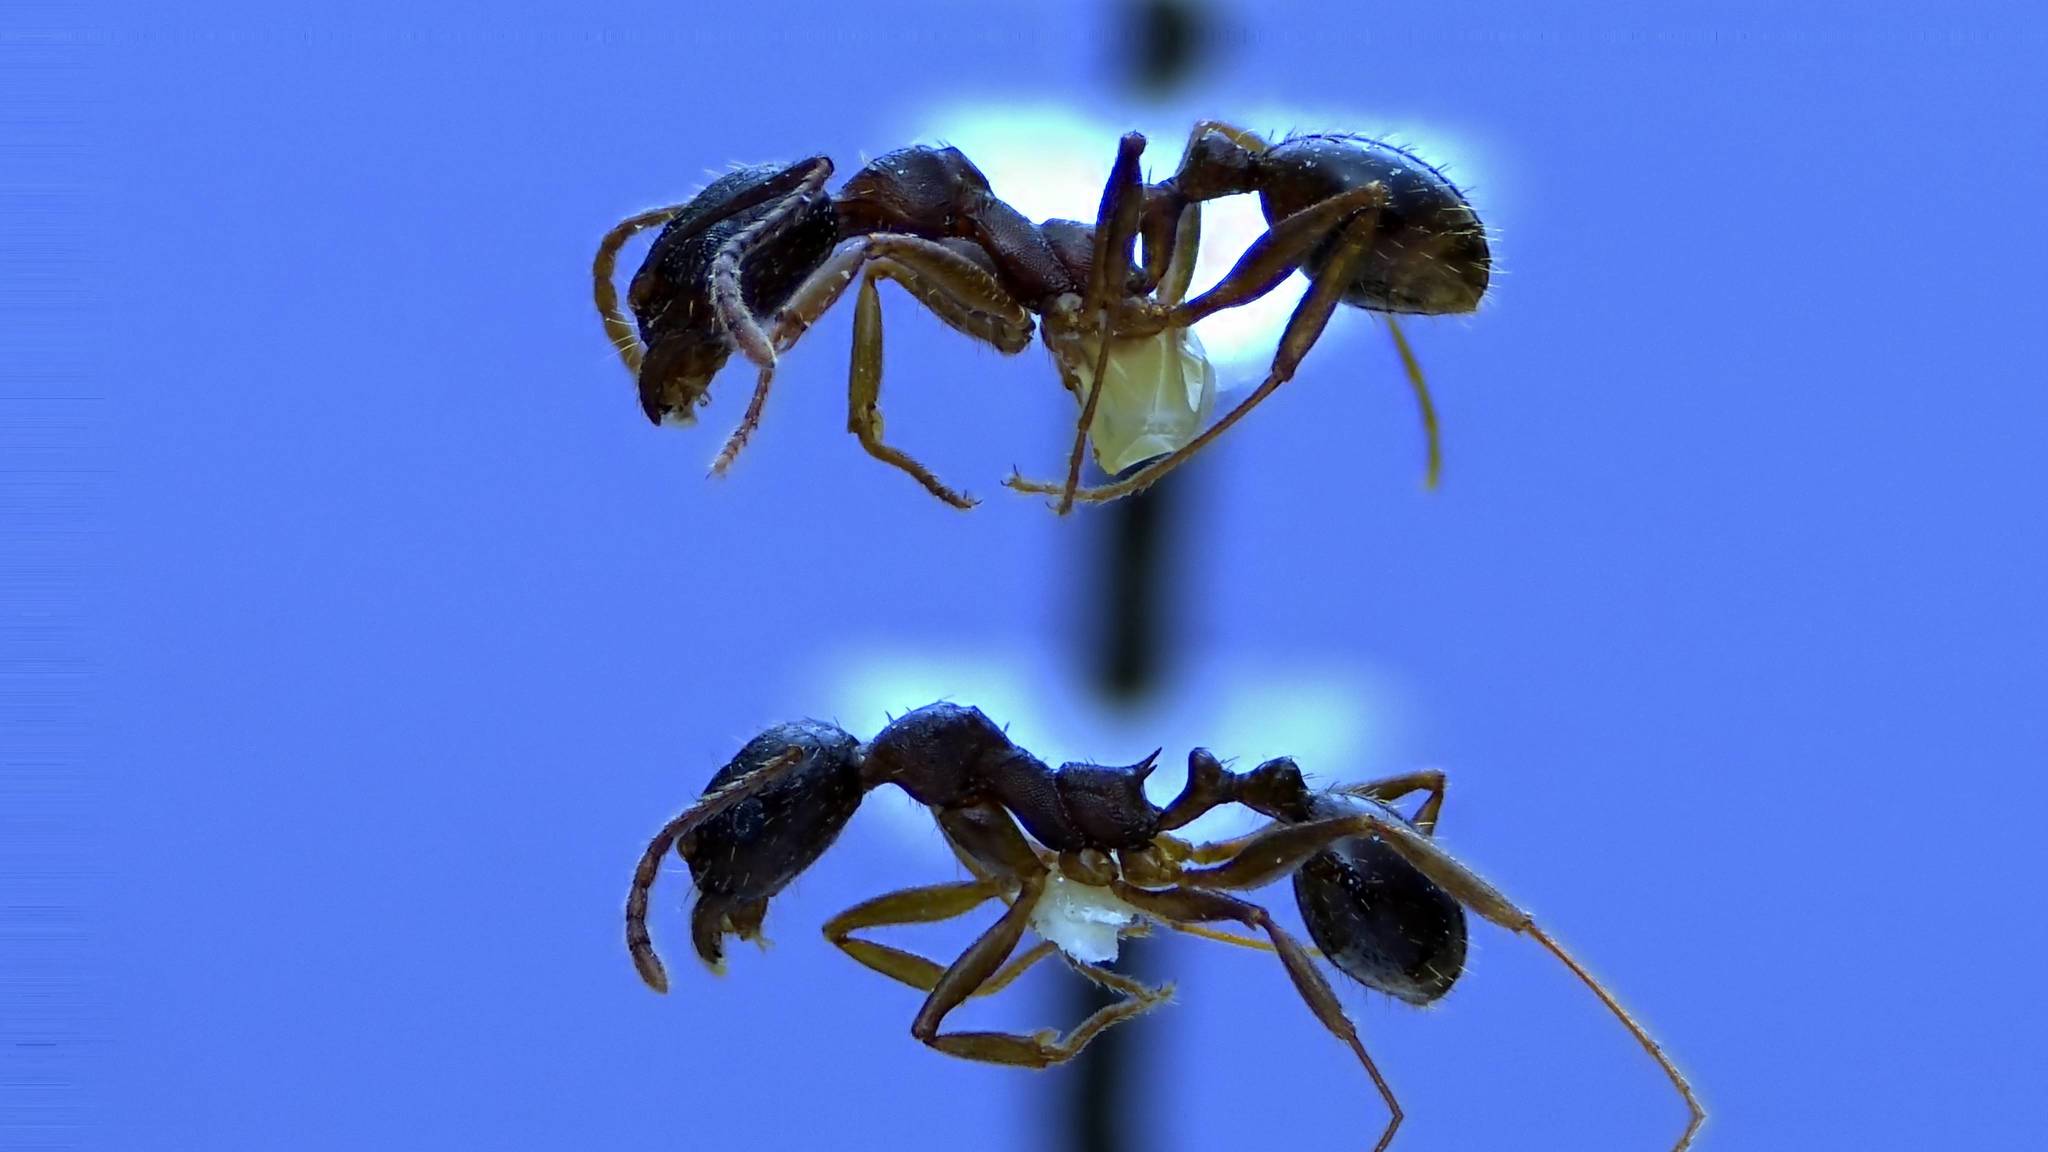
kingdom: Animalia
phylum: Arthropoda
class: Insecta
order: Hymenoptera
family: Formicidae
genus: Aphaenogaster
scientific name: Aphaenogaster picea
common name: Pitch-black collared ant
